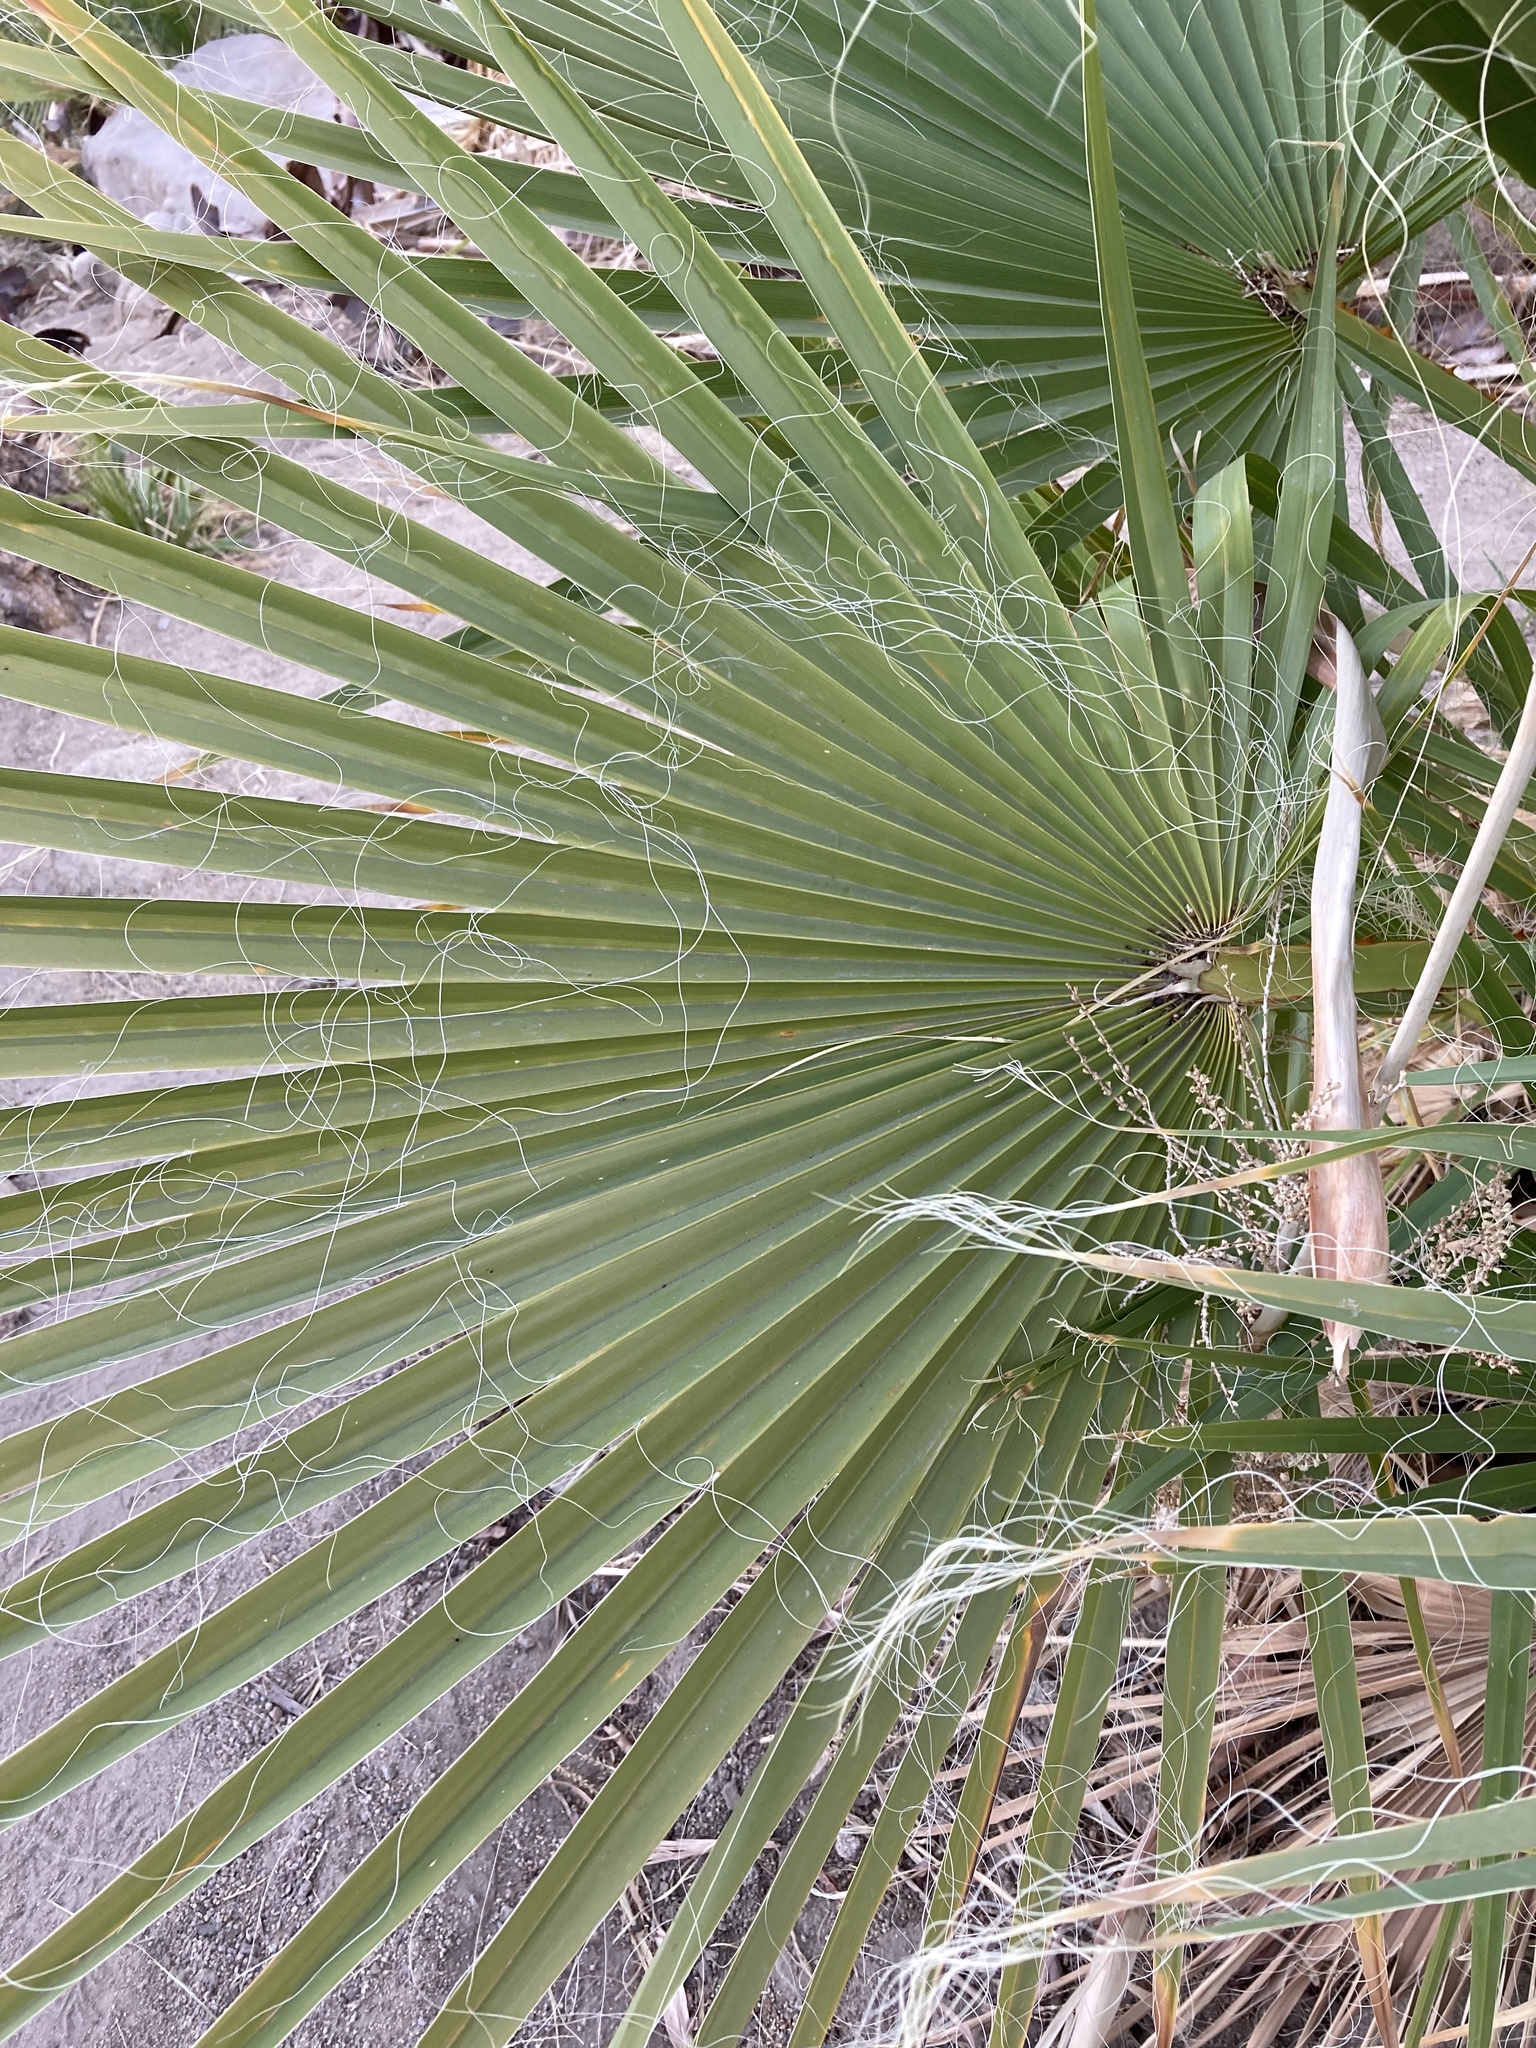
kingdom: Plantae
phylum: Tracheophyta
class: Liliopsida
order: Arecales
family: Arecaceae
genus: Washingtonia
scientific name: Washingtonia filifera
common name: California fan palm
